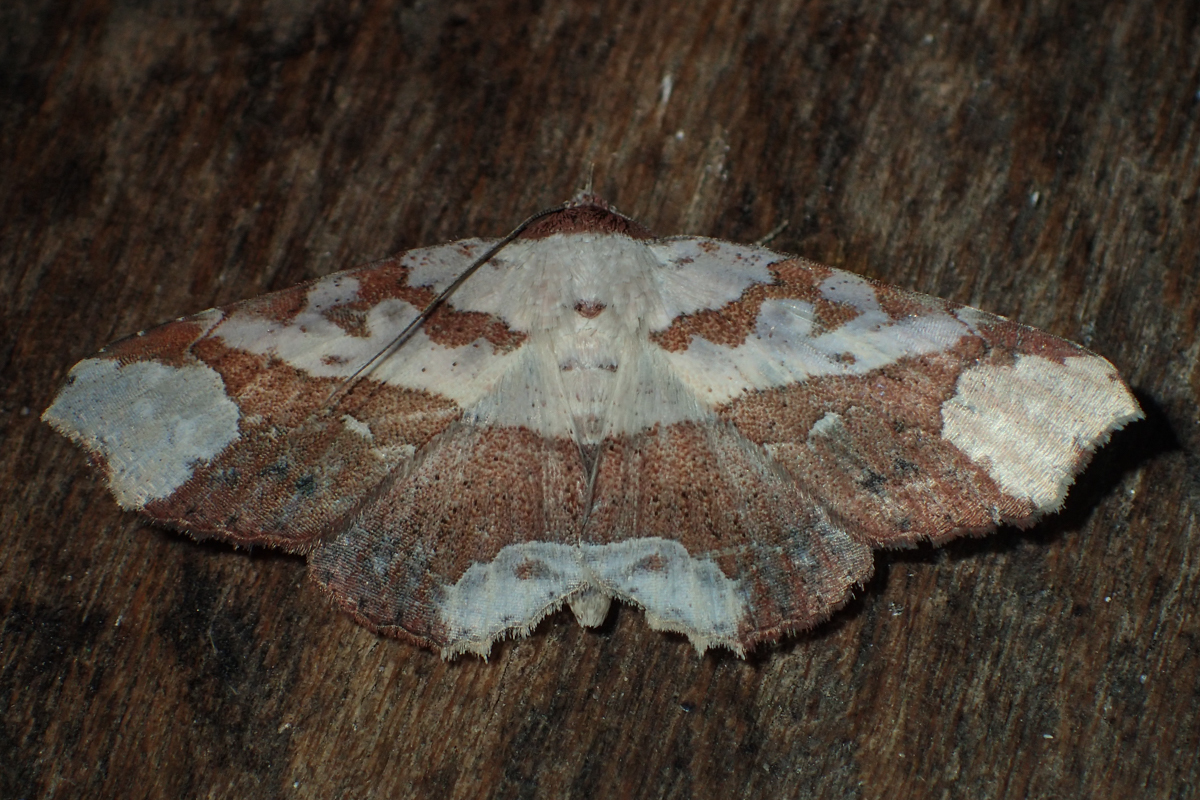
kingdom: Animalia
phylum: Arthropoda
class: Insecta
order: Lepidoptera
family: Erebidae
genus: Tropidtamba
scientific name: Tropidtamba lepraota
